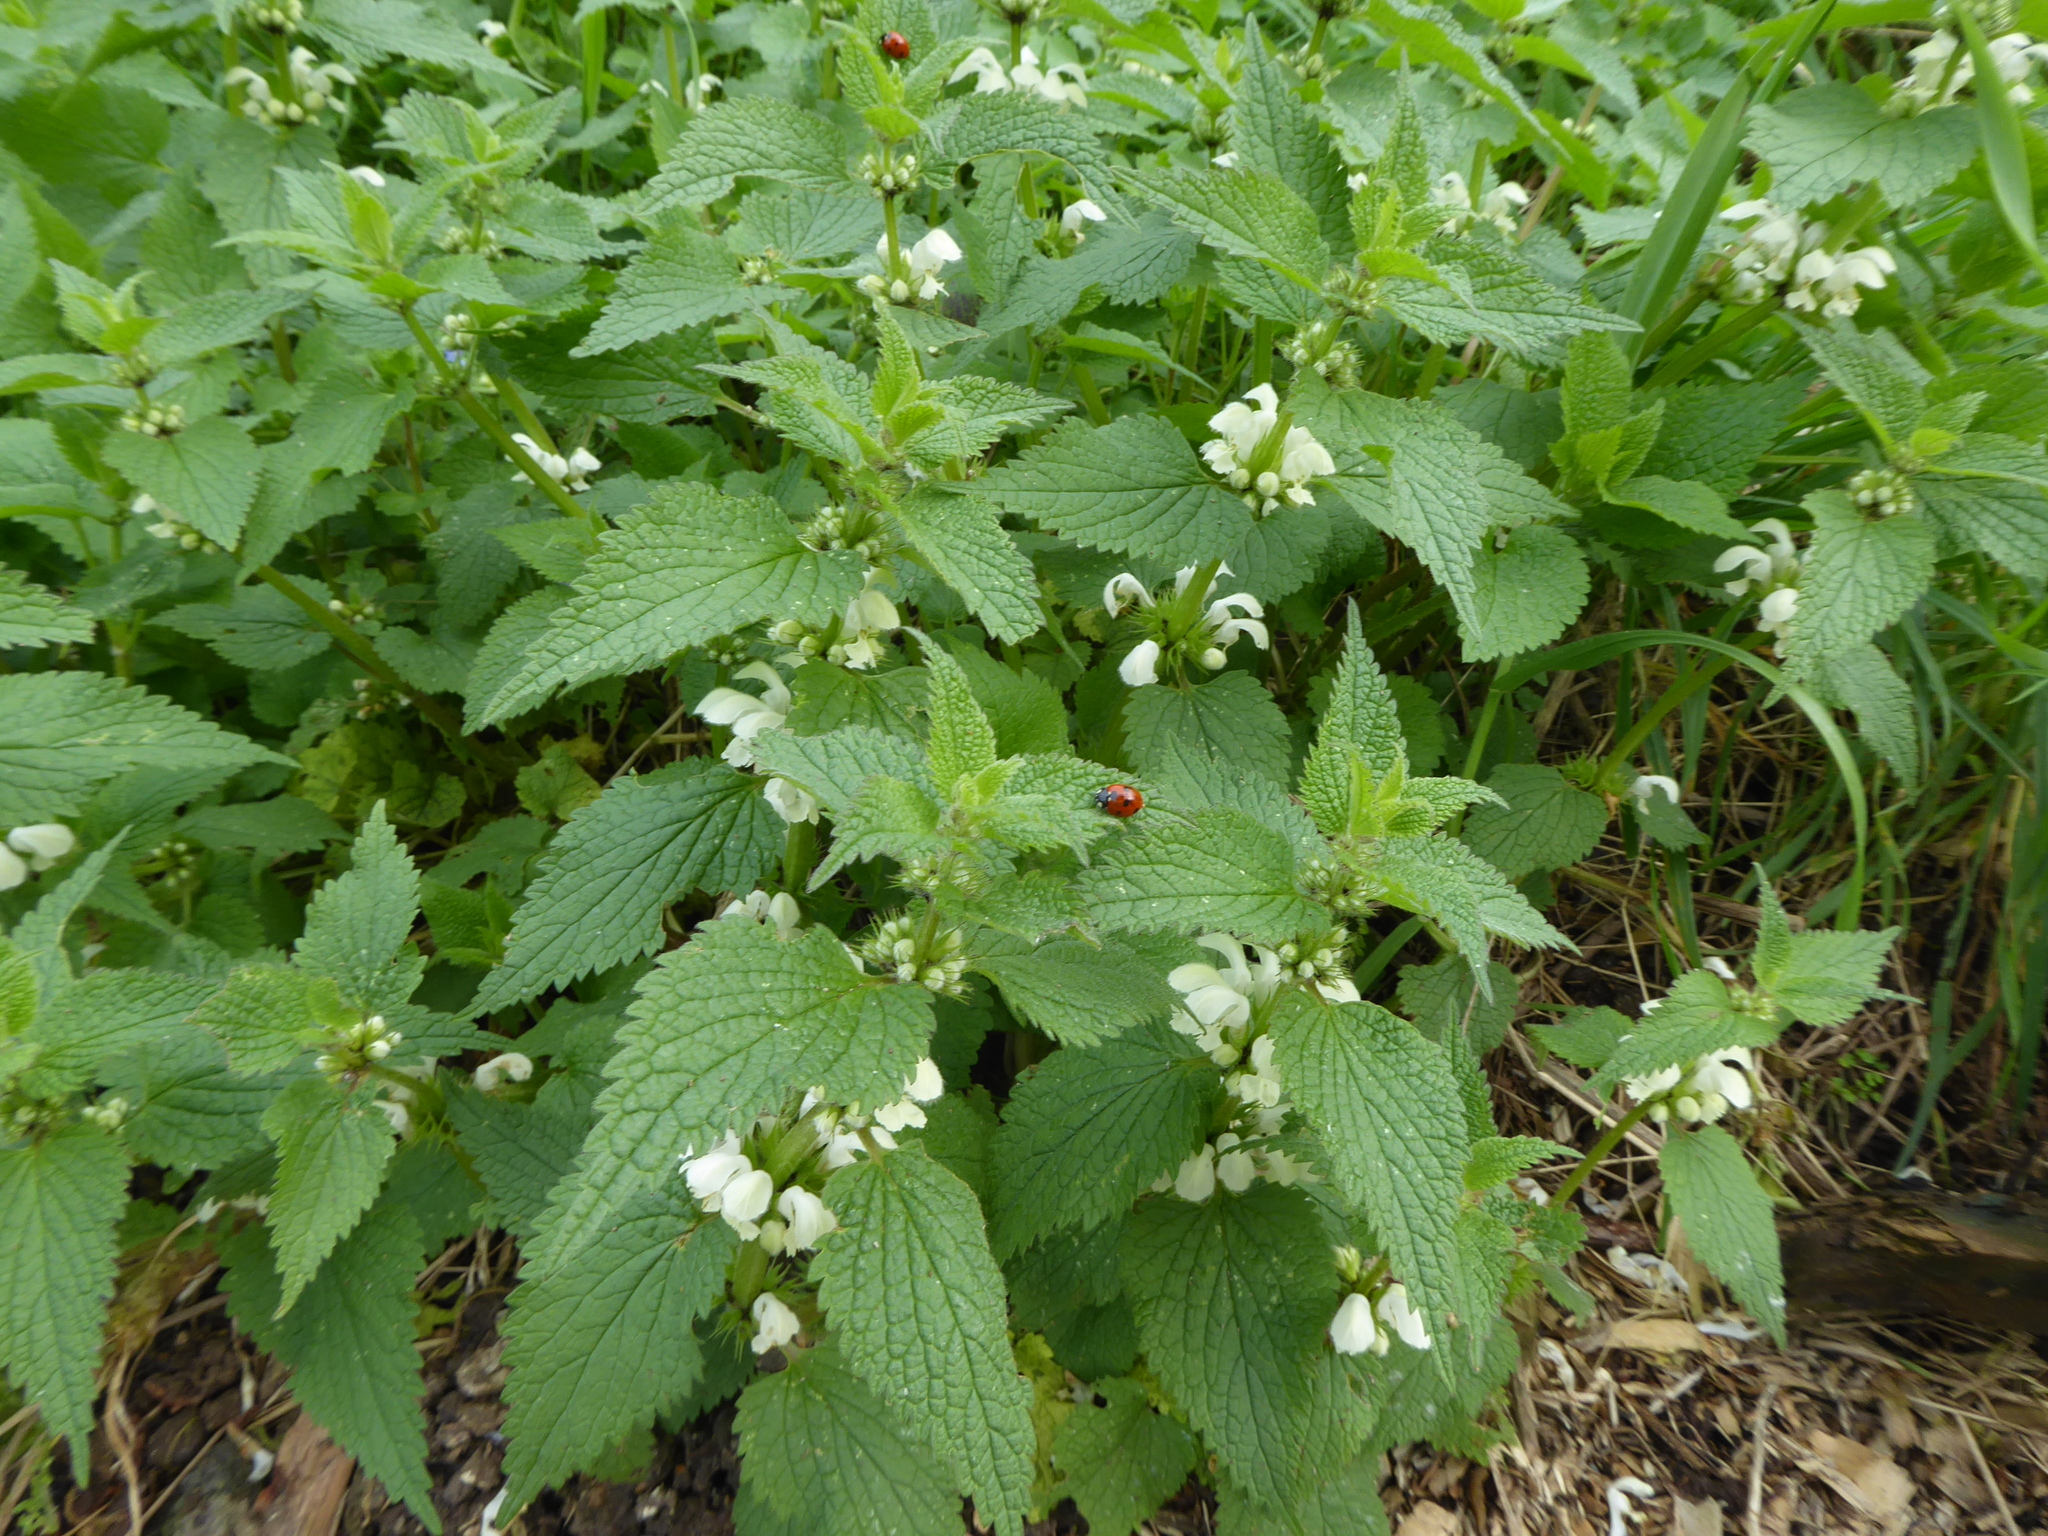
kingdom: Plantae
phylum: Tracheophyta
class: Magnoliopsida
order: Lamiales
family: Lamiaceae
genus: Lamium
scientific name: Lamium album
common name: White dead-nettle
